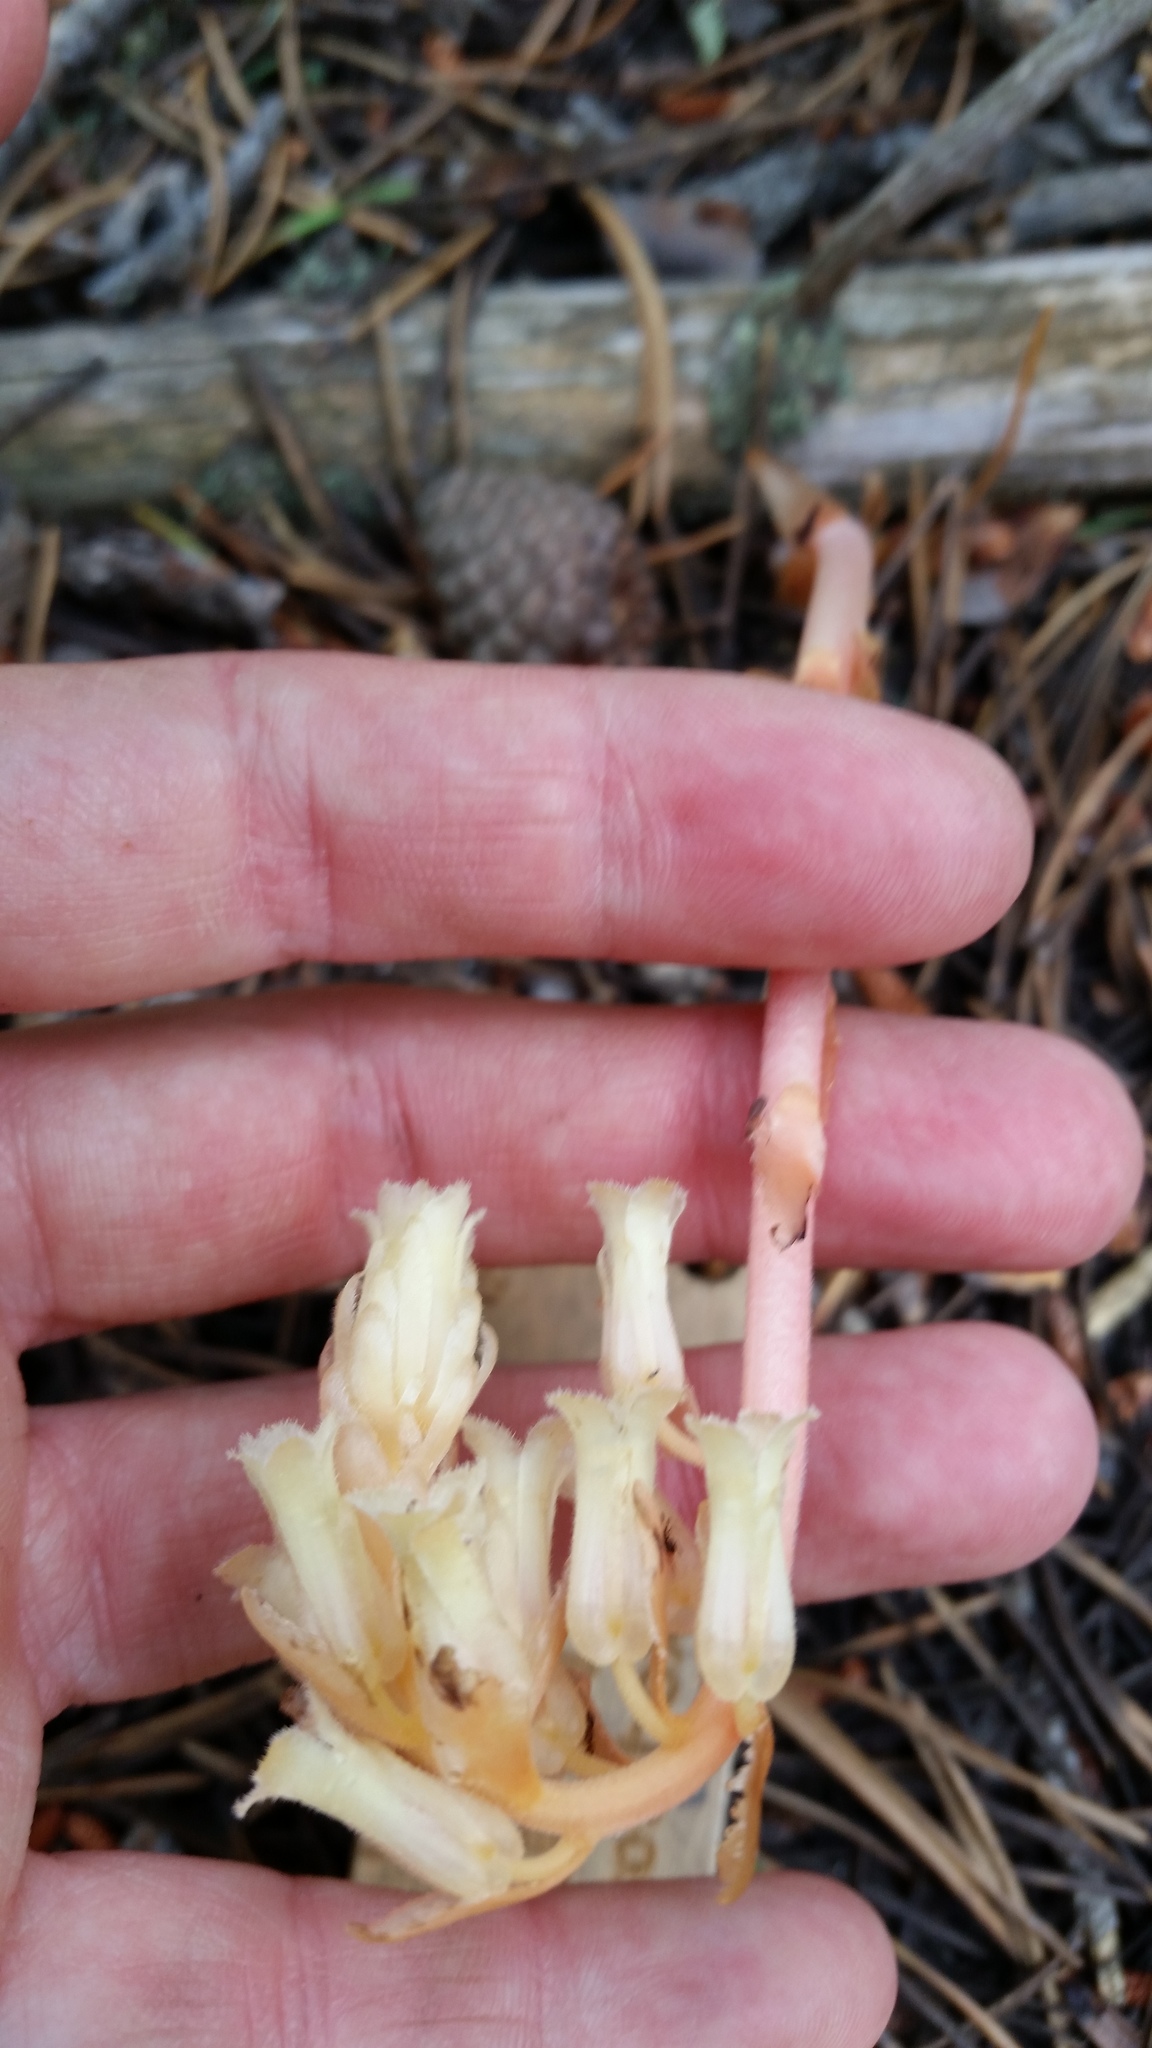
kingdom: Plantae
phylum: Tracheophyta
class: Magnoliopsida
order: Ericales
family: Ericaceae
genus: Hypopitys
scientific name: Hypopitys monotropa
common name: Yellow bird's-nest
